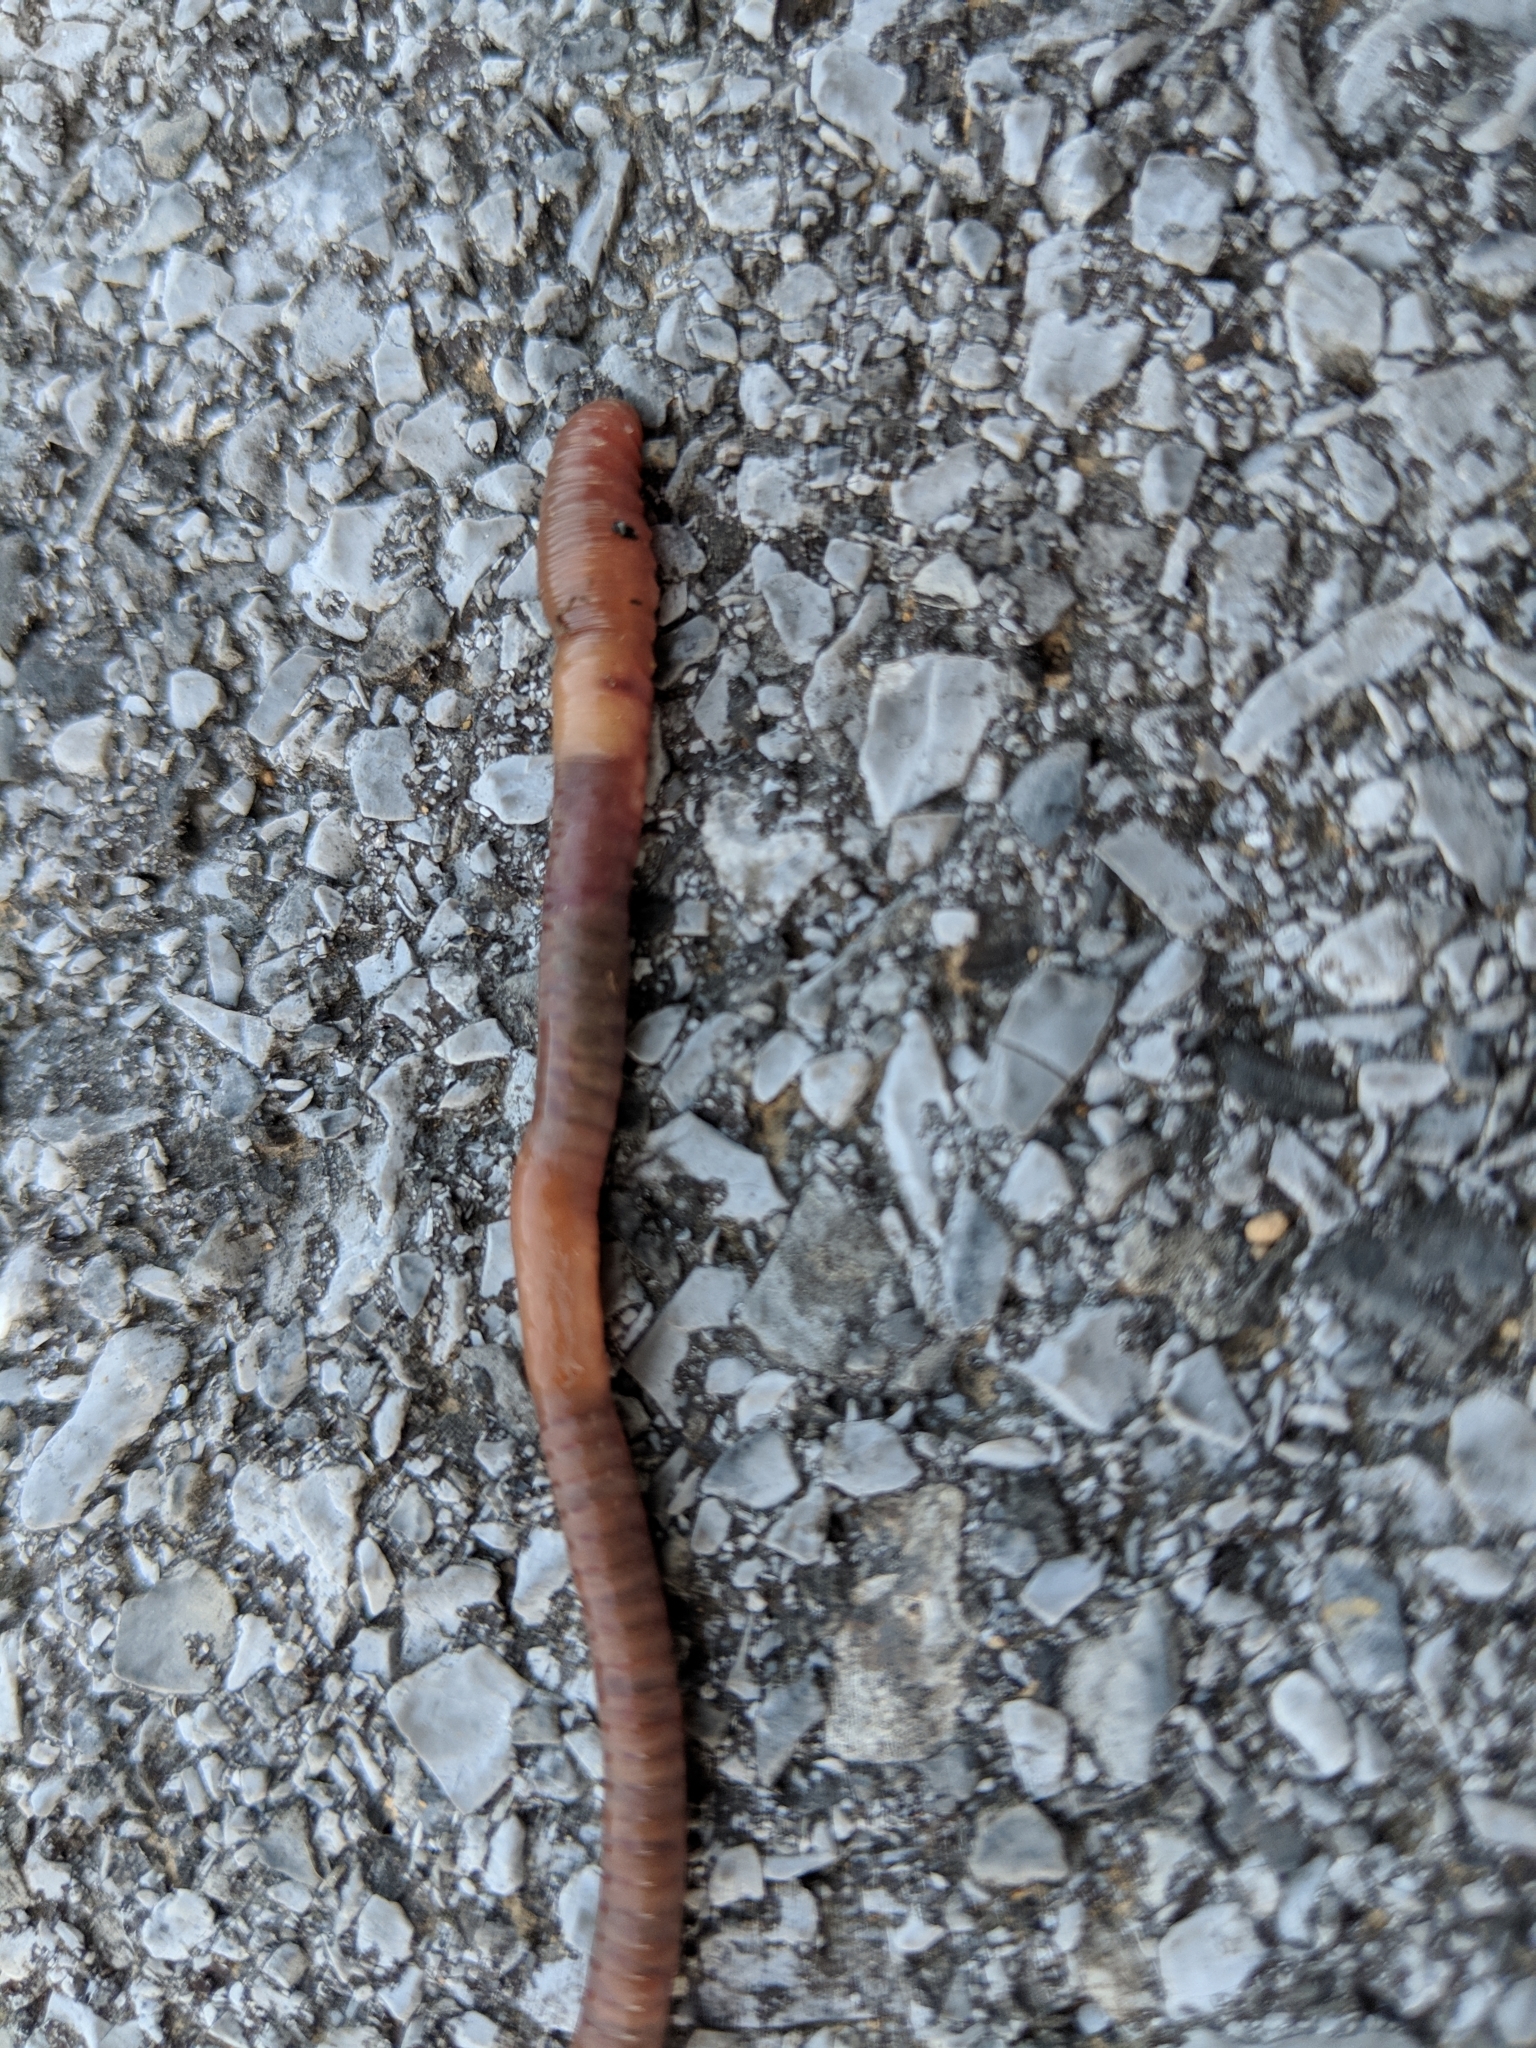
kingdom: Animalia
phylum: Annelida
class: Clitellata
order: Crassiclitellata
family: Lumbricidae
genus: Lumbricus
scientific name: Lumbricus terrestris
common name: Common earthworm
